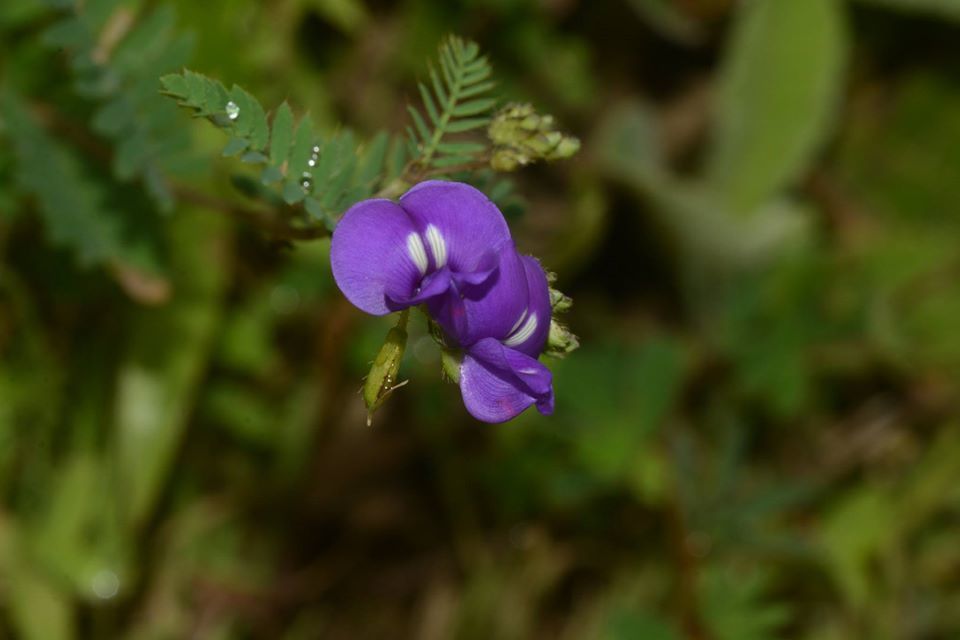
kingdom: Plantae
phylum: Tracheophyta
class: Magnoliopsida
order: Fabales
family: Fabaceae
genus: Smithia
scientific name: Smithia purpurea
